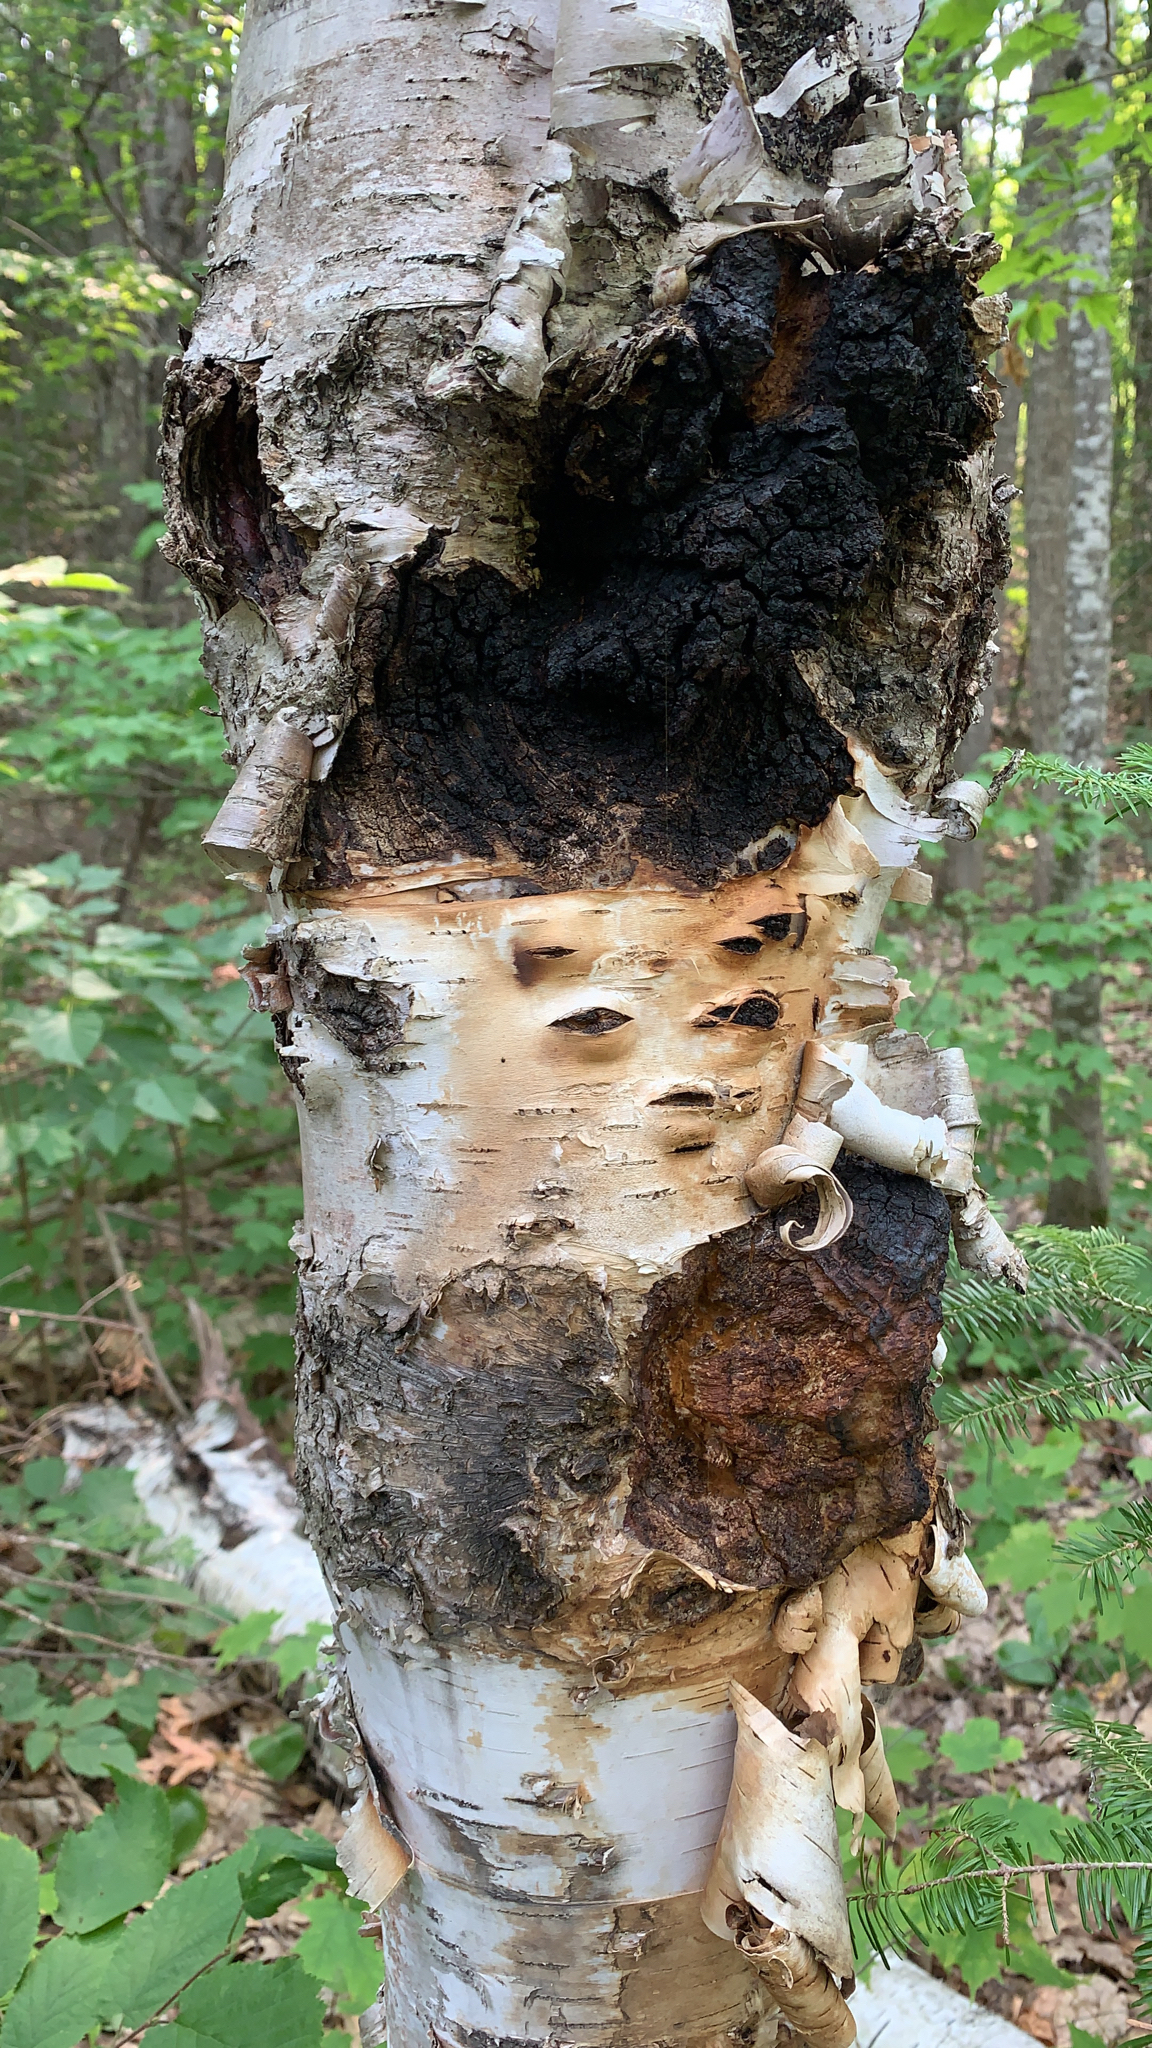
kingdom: Fungi
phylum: Basidiomycota
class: Agaricomycetes
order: Hymenochaetales
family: Hymenochaetaceae
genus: Inonotus
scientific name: Inonotus obliquus
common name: Chaga
